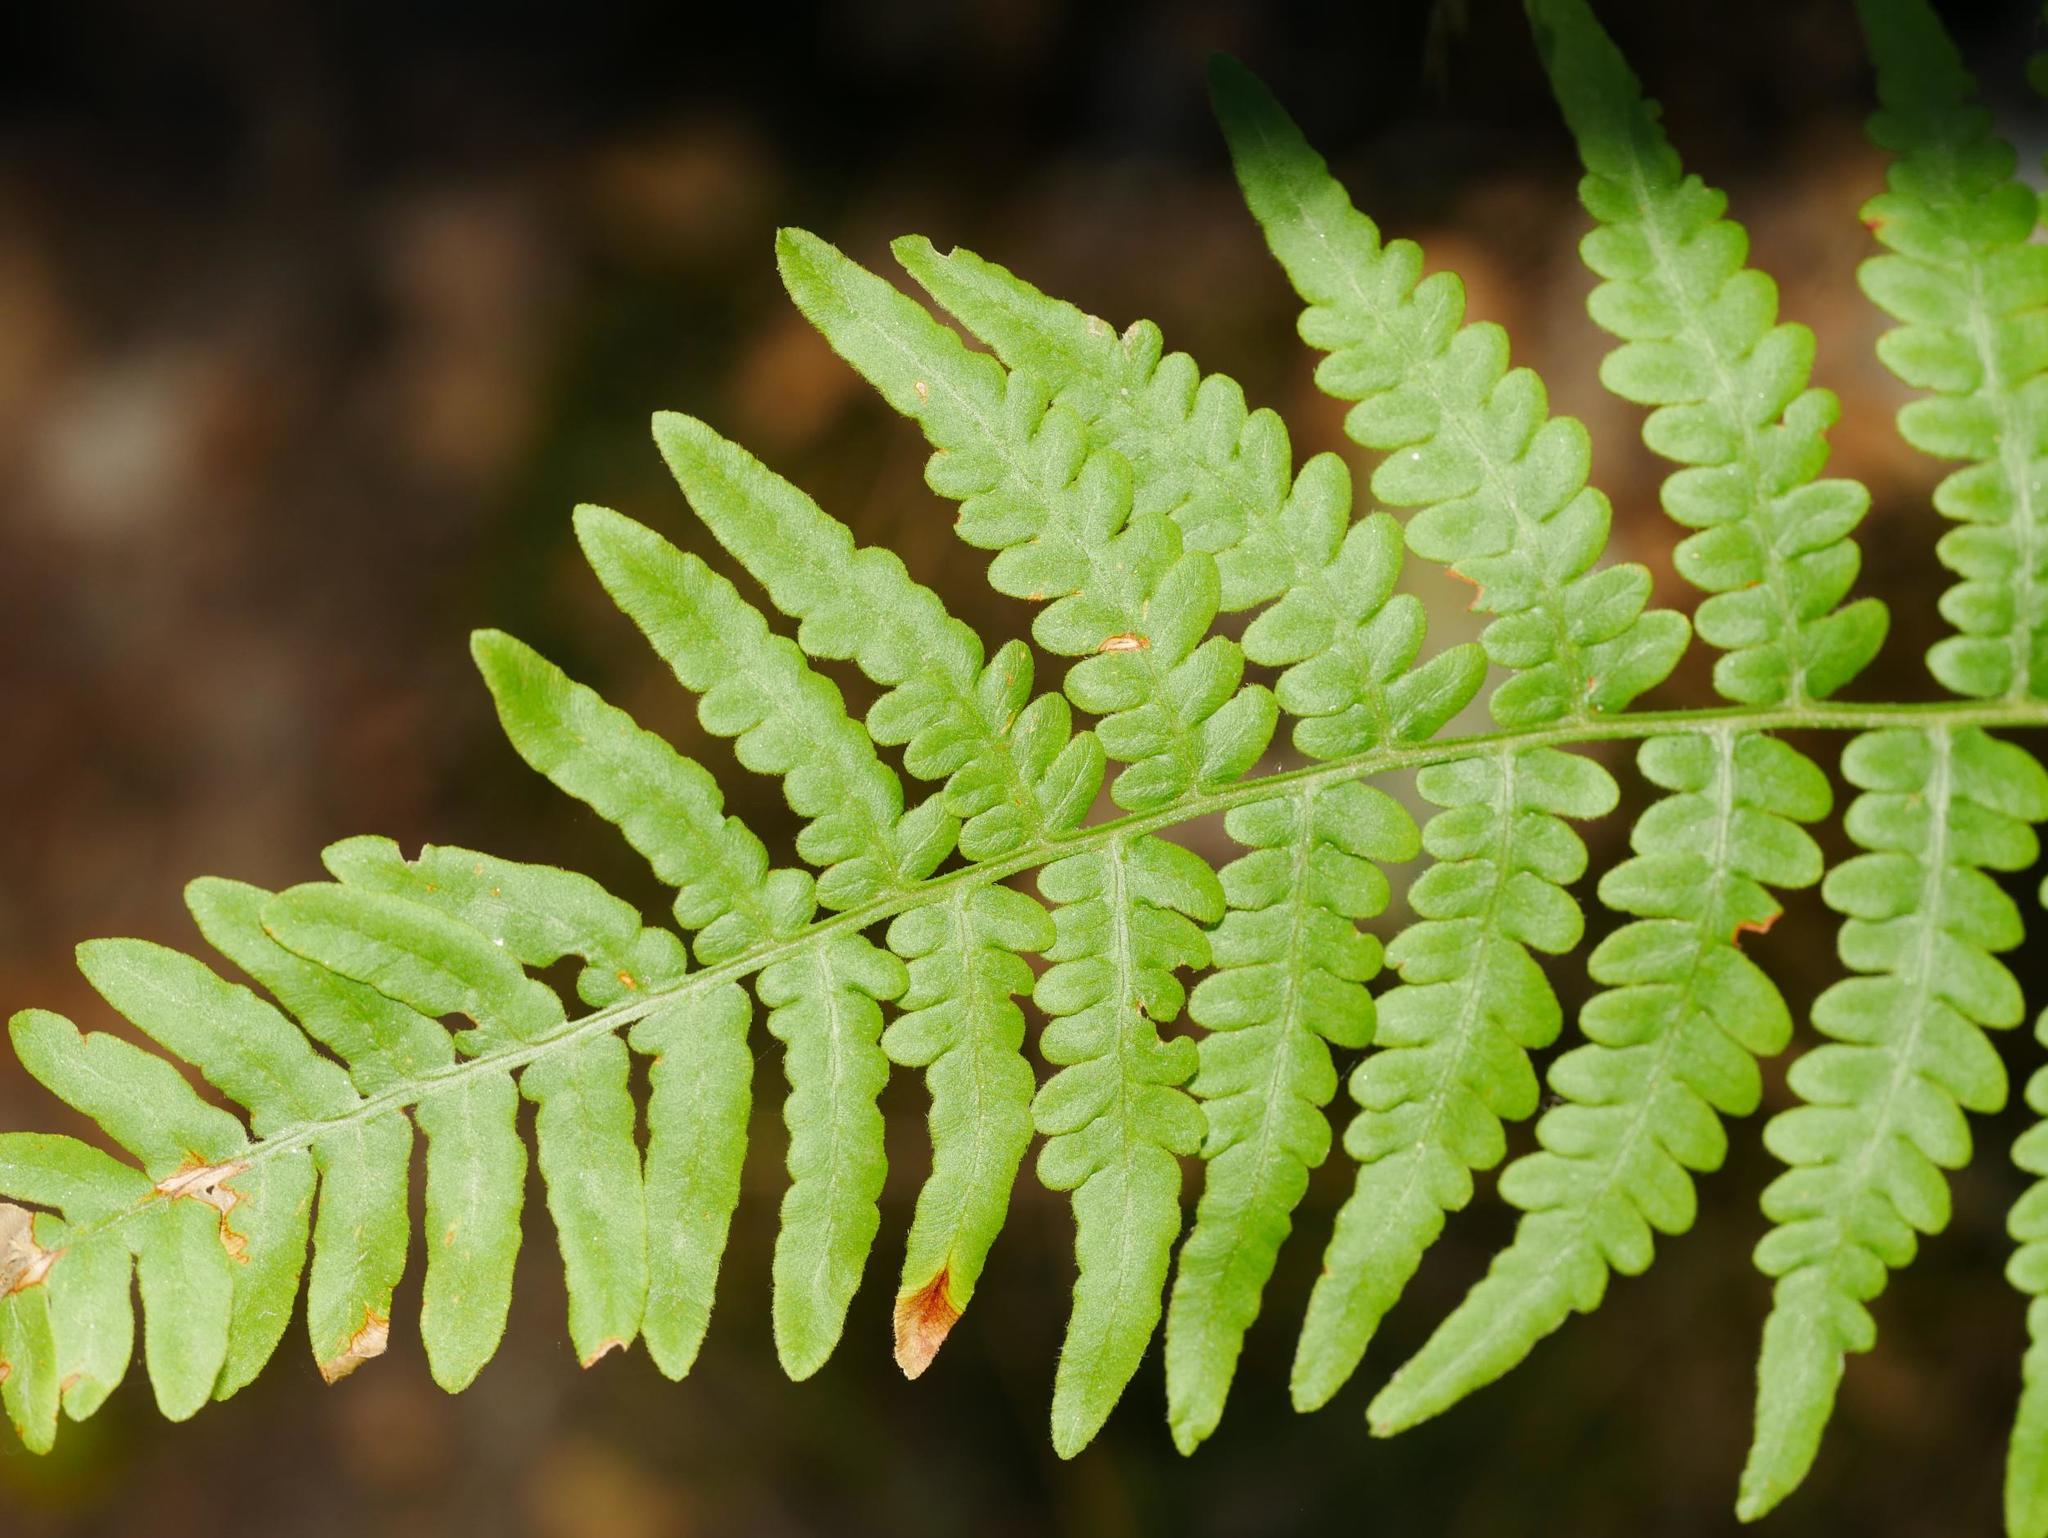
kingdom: Plantae
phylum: Tracheophyta
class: Polypodiopsida
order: Polypodiales
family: Dennstaedtiaceae
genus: Pteridium
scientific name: Pteridium aquilinum
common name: Bracken
